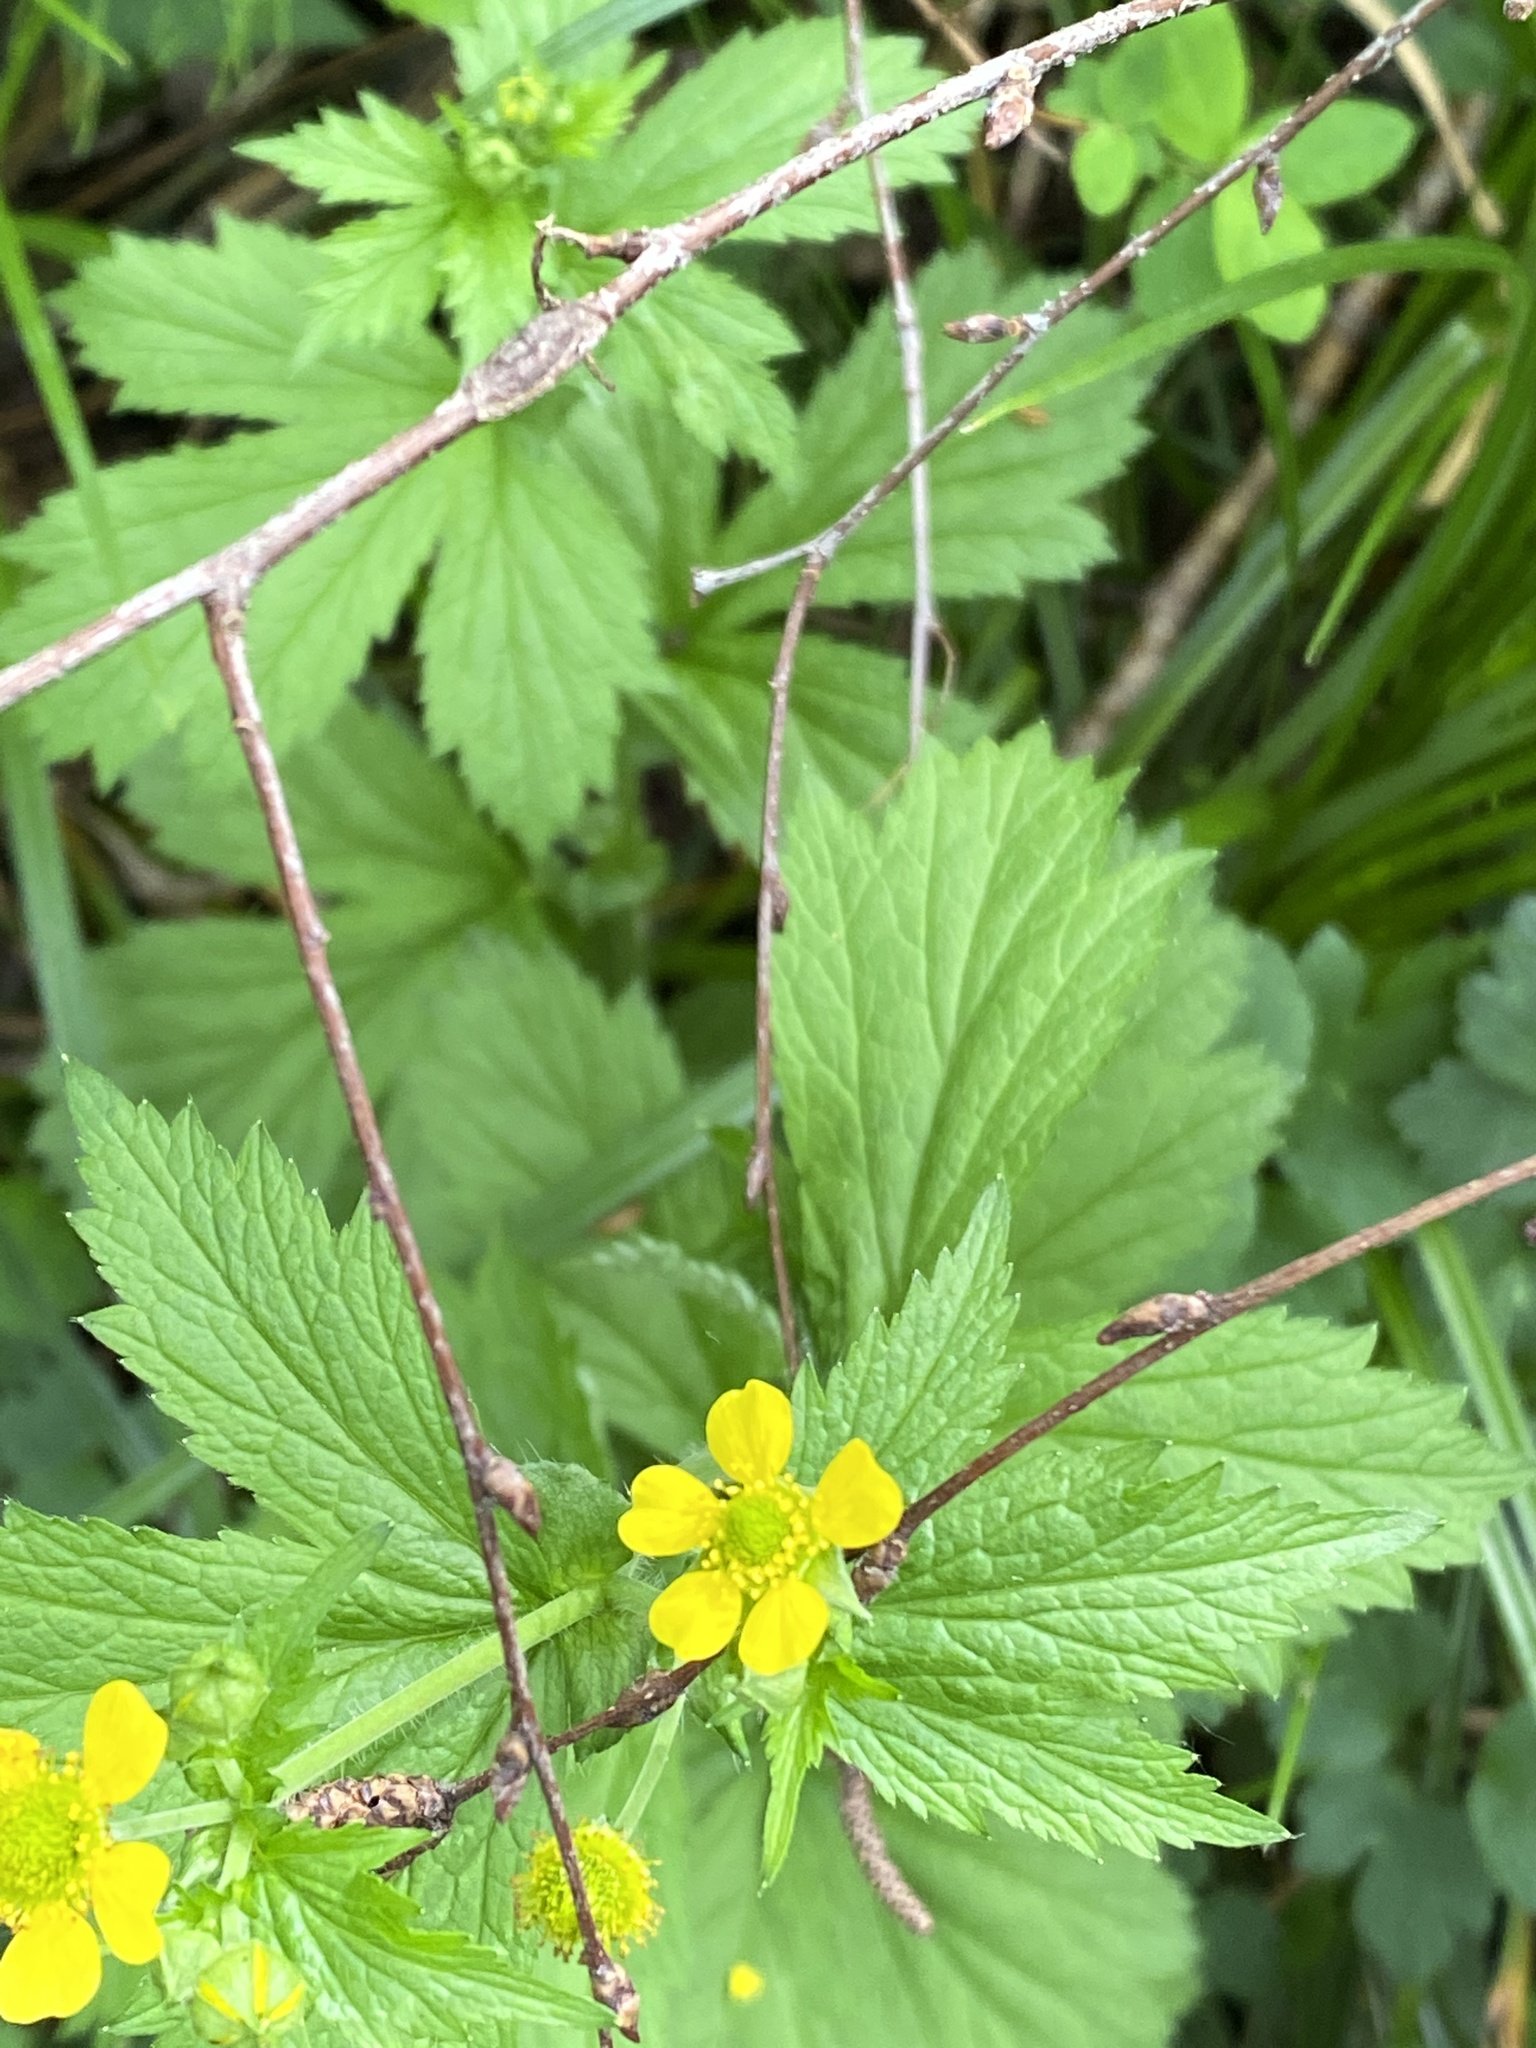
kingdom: Plantae
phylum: Tracheophyta
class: Magnoliopsida
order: Rosales
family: Rosaceae
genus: Geum
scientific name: Geum macrophyllum
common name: Large-leaved avens
